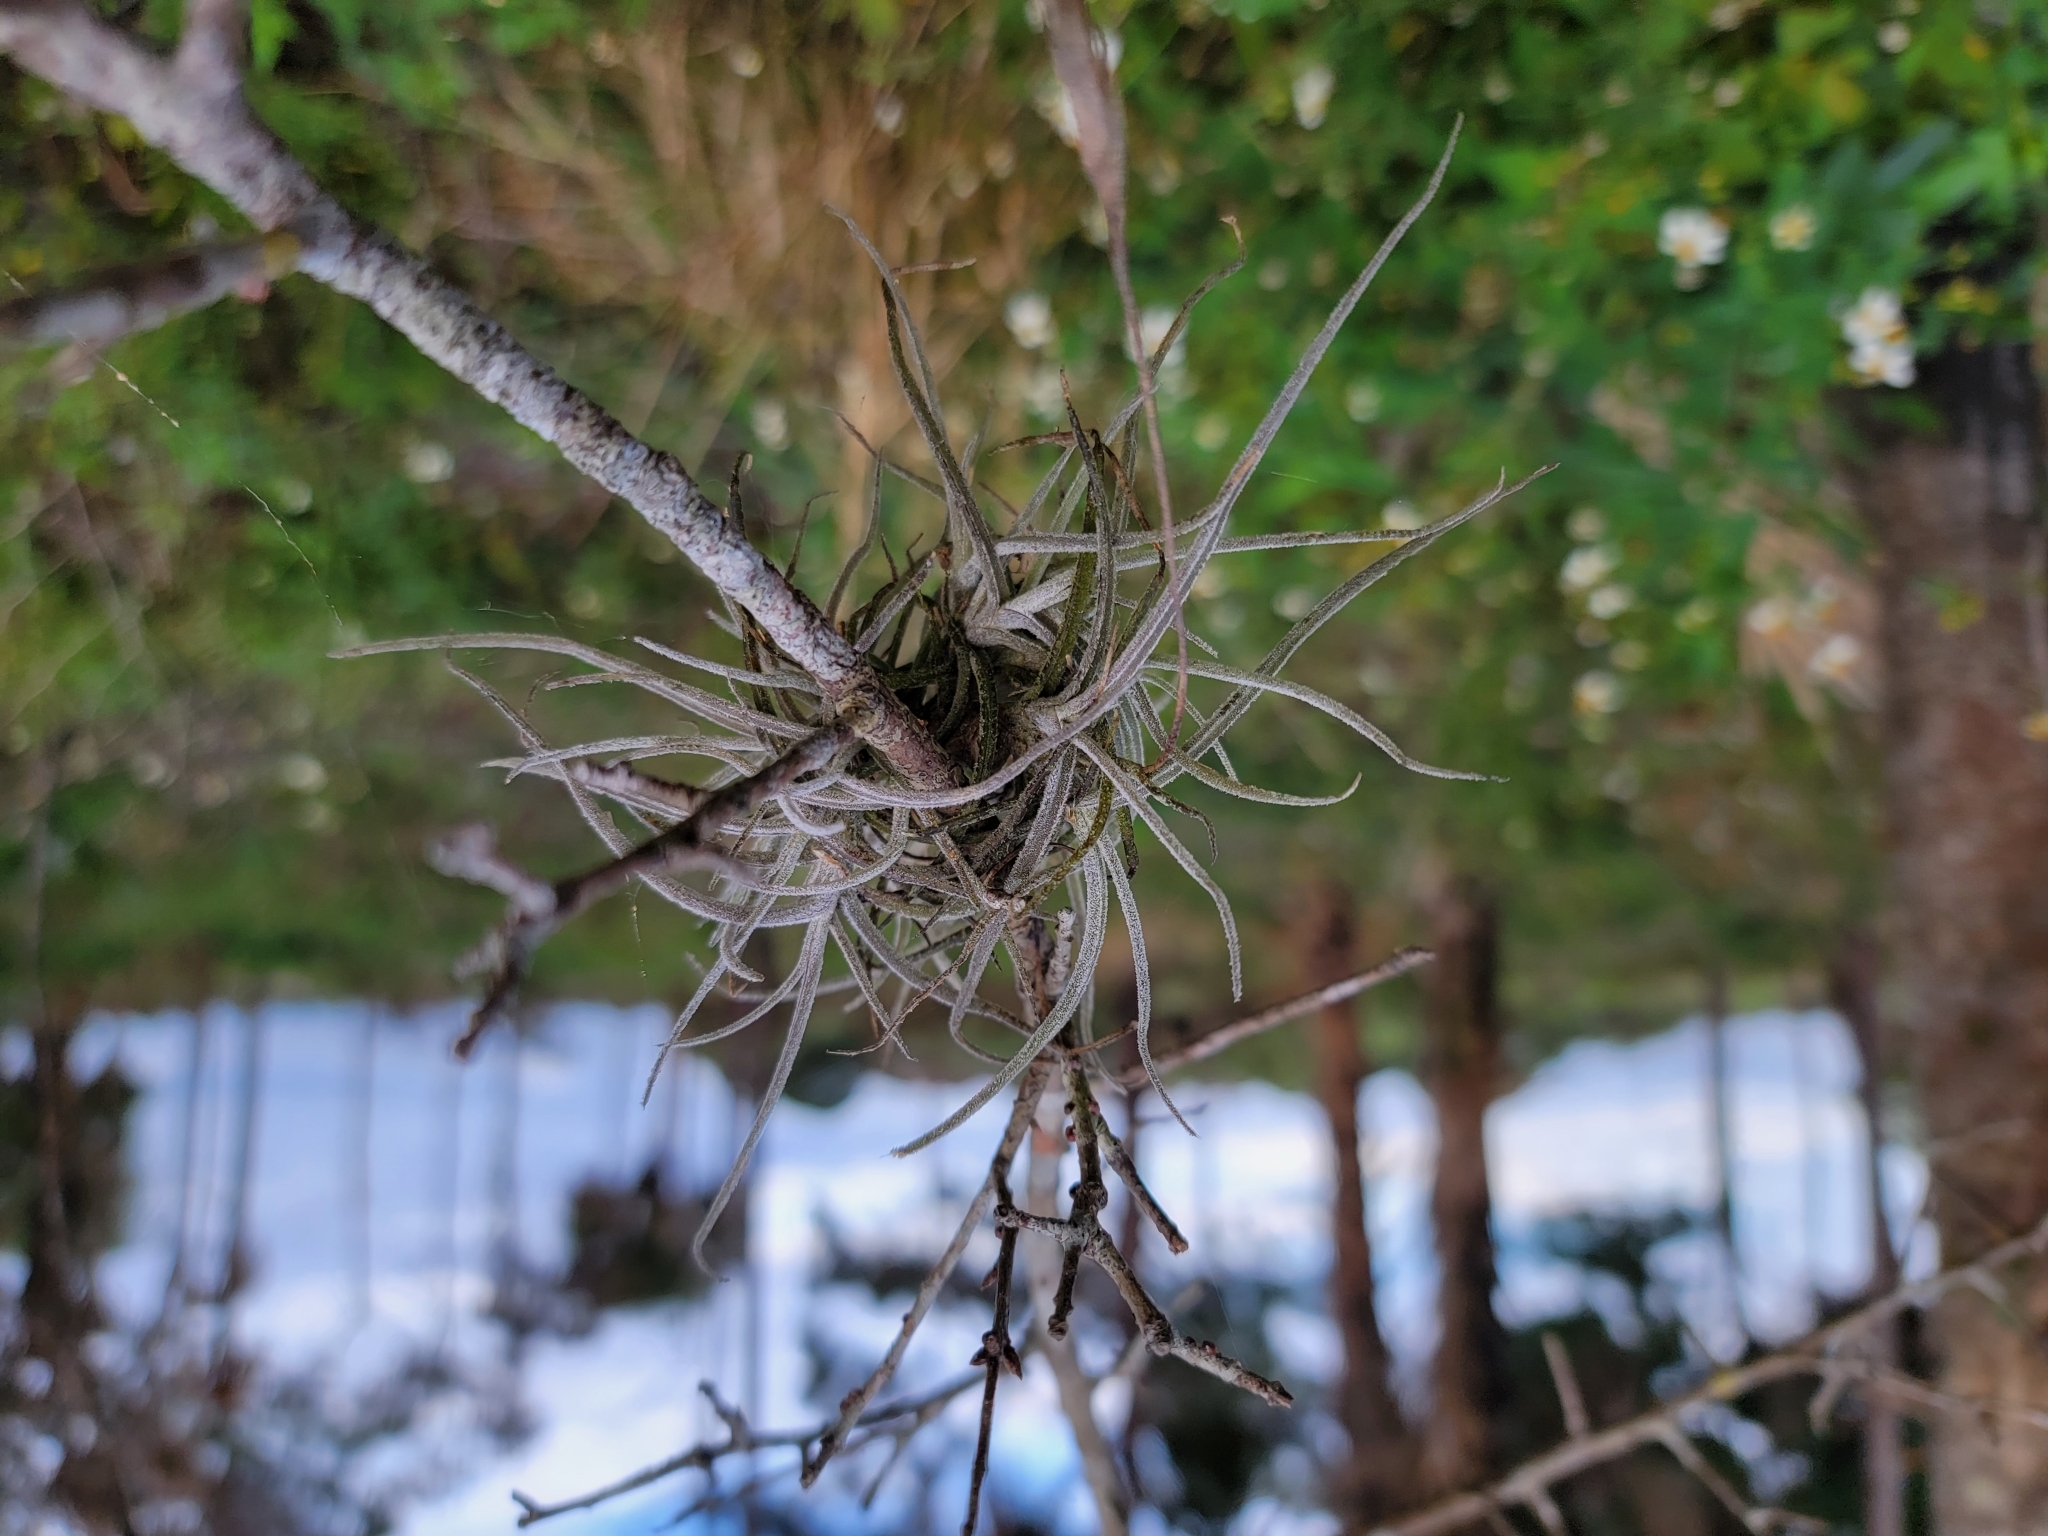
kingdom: Plantae
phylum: Tracheophyta
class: Liliopsida
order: Poales
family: Bromeliaceae
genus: Tillandsia
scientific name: Tillandsia recurvata
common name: Small ballmoss
